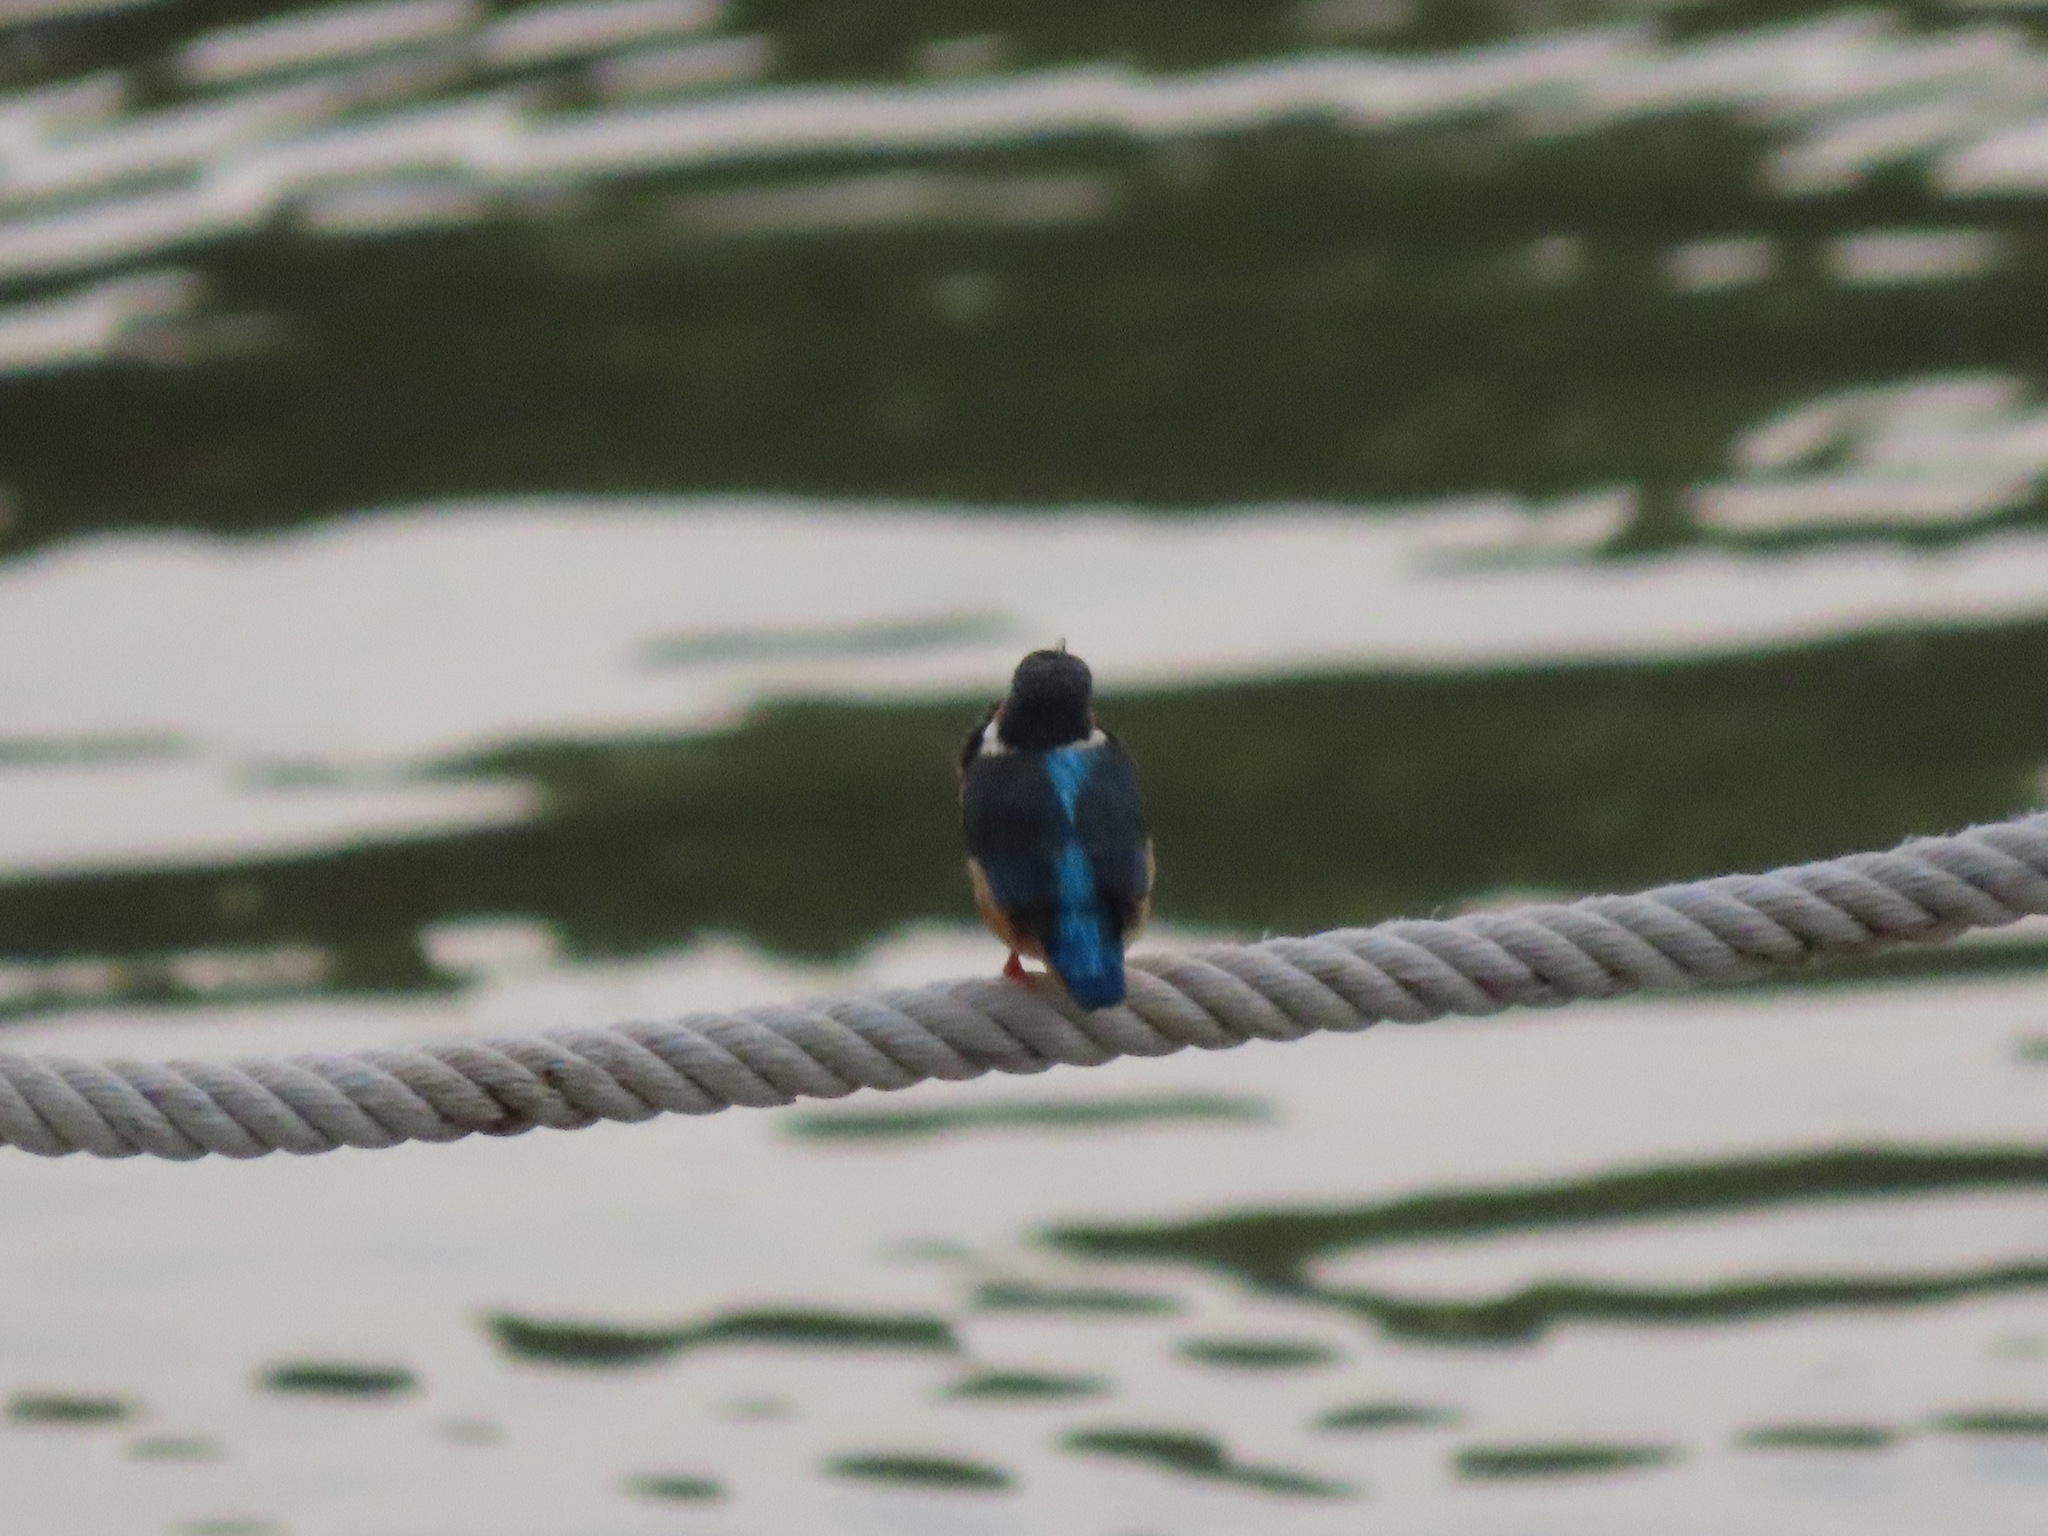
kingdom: Animalia
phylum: Chordata
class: Aves
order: Coraciiformes
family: Alcedinidae
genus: Alcedo
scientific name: Alcedo atthis
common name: Common kingfisher
